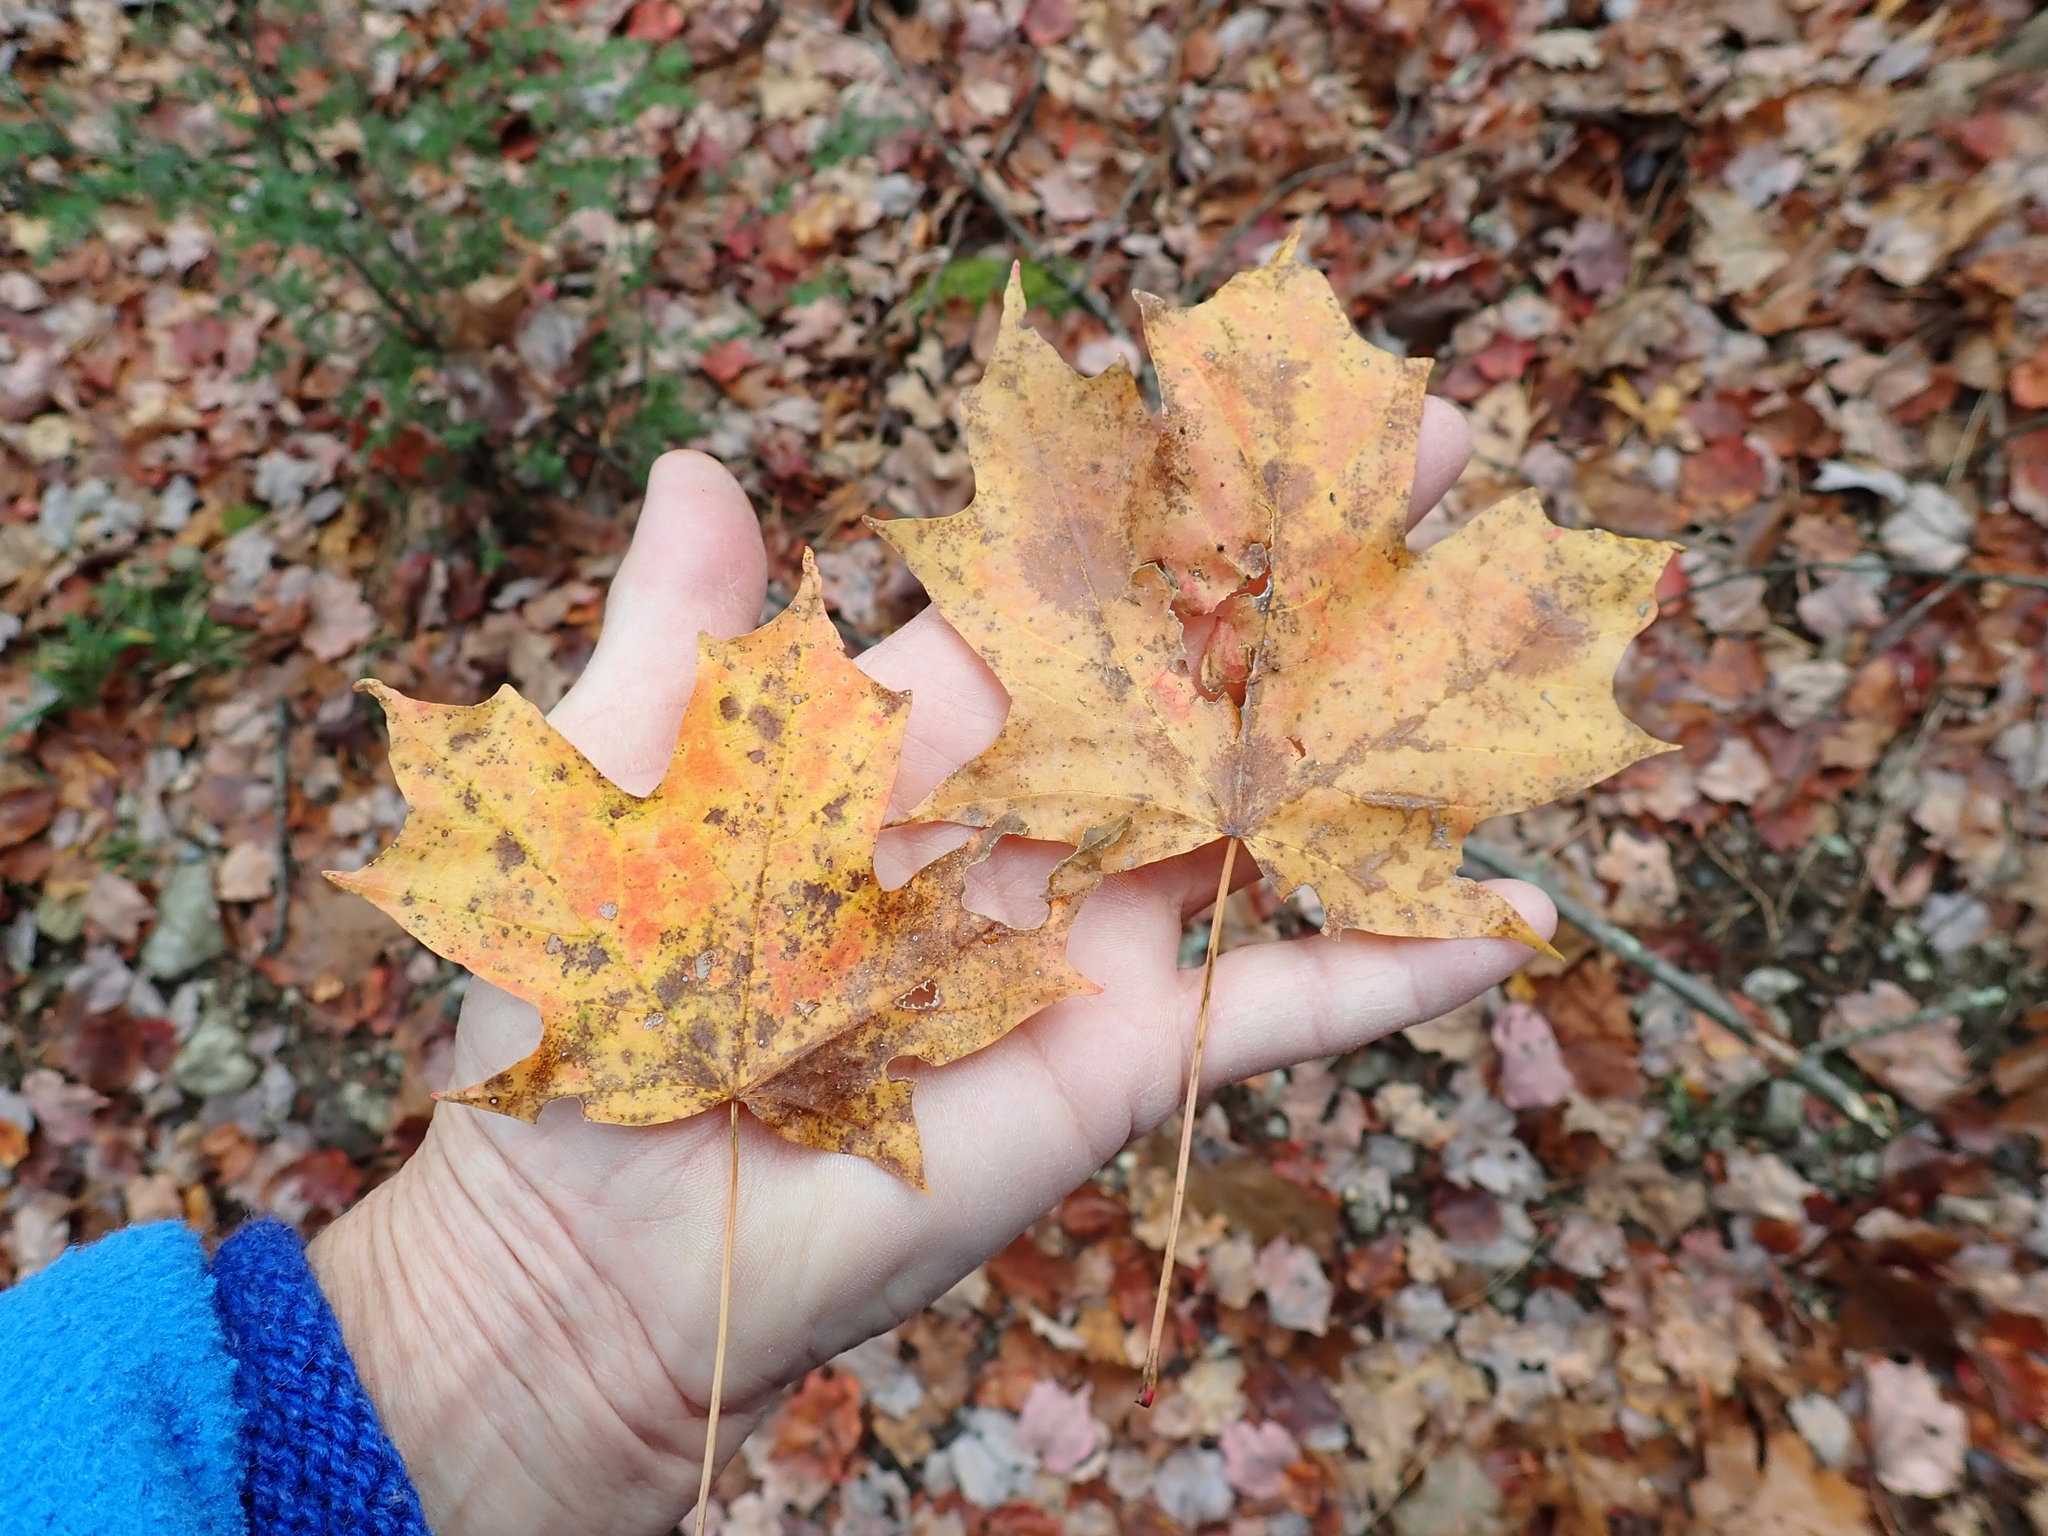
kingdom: Plantae
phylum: Tracheophyta
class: Magnoliopsida
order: Sapindales
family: Sapindaceae
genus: Acer
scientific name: Acer saccharum
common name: Sugar maple
